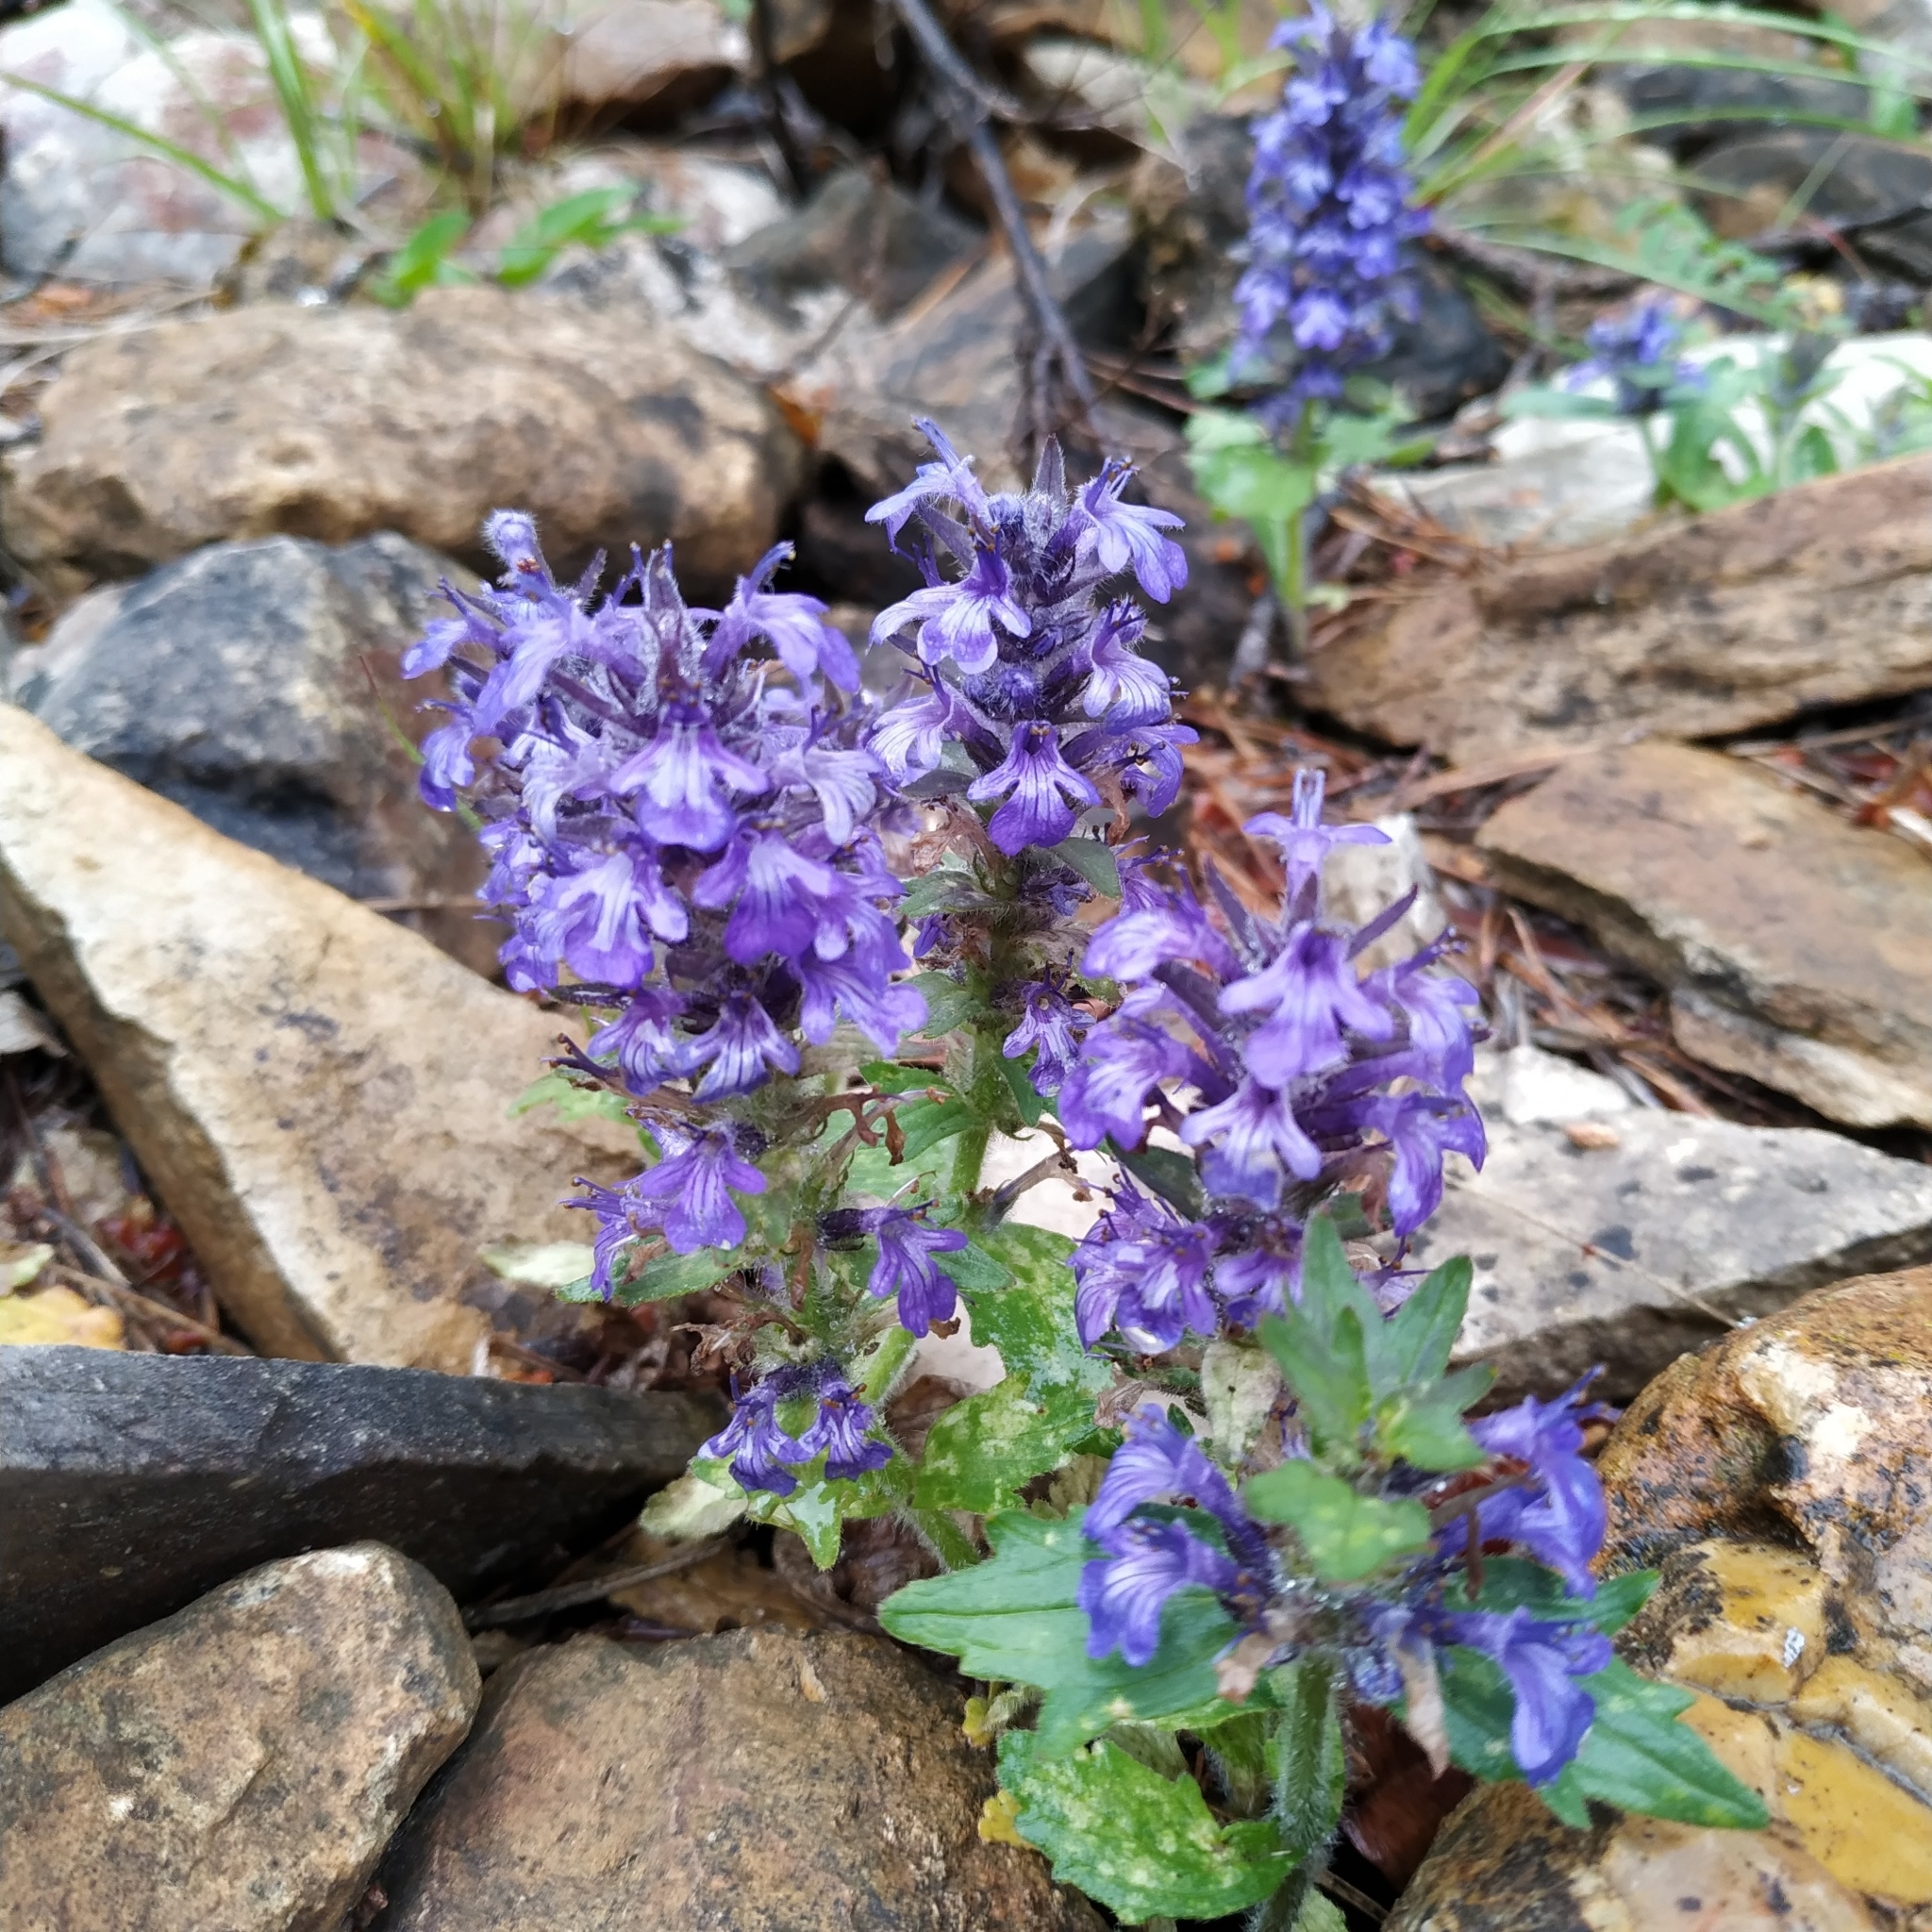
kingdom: Plantae
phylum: Tracheophyta
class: Magnoliopsida
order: Lamiales
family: Lamiaceae
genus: Ajuga
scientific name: Ajuga genevensis
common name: Blue bugle
